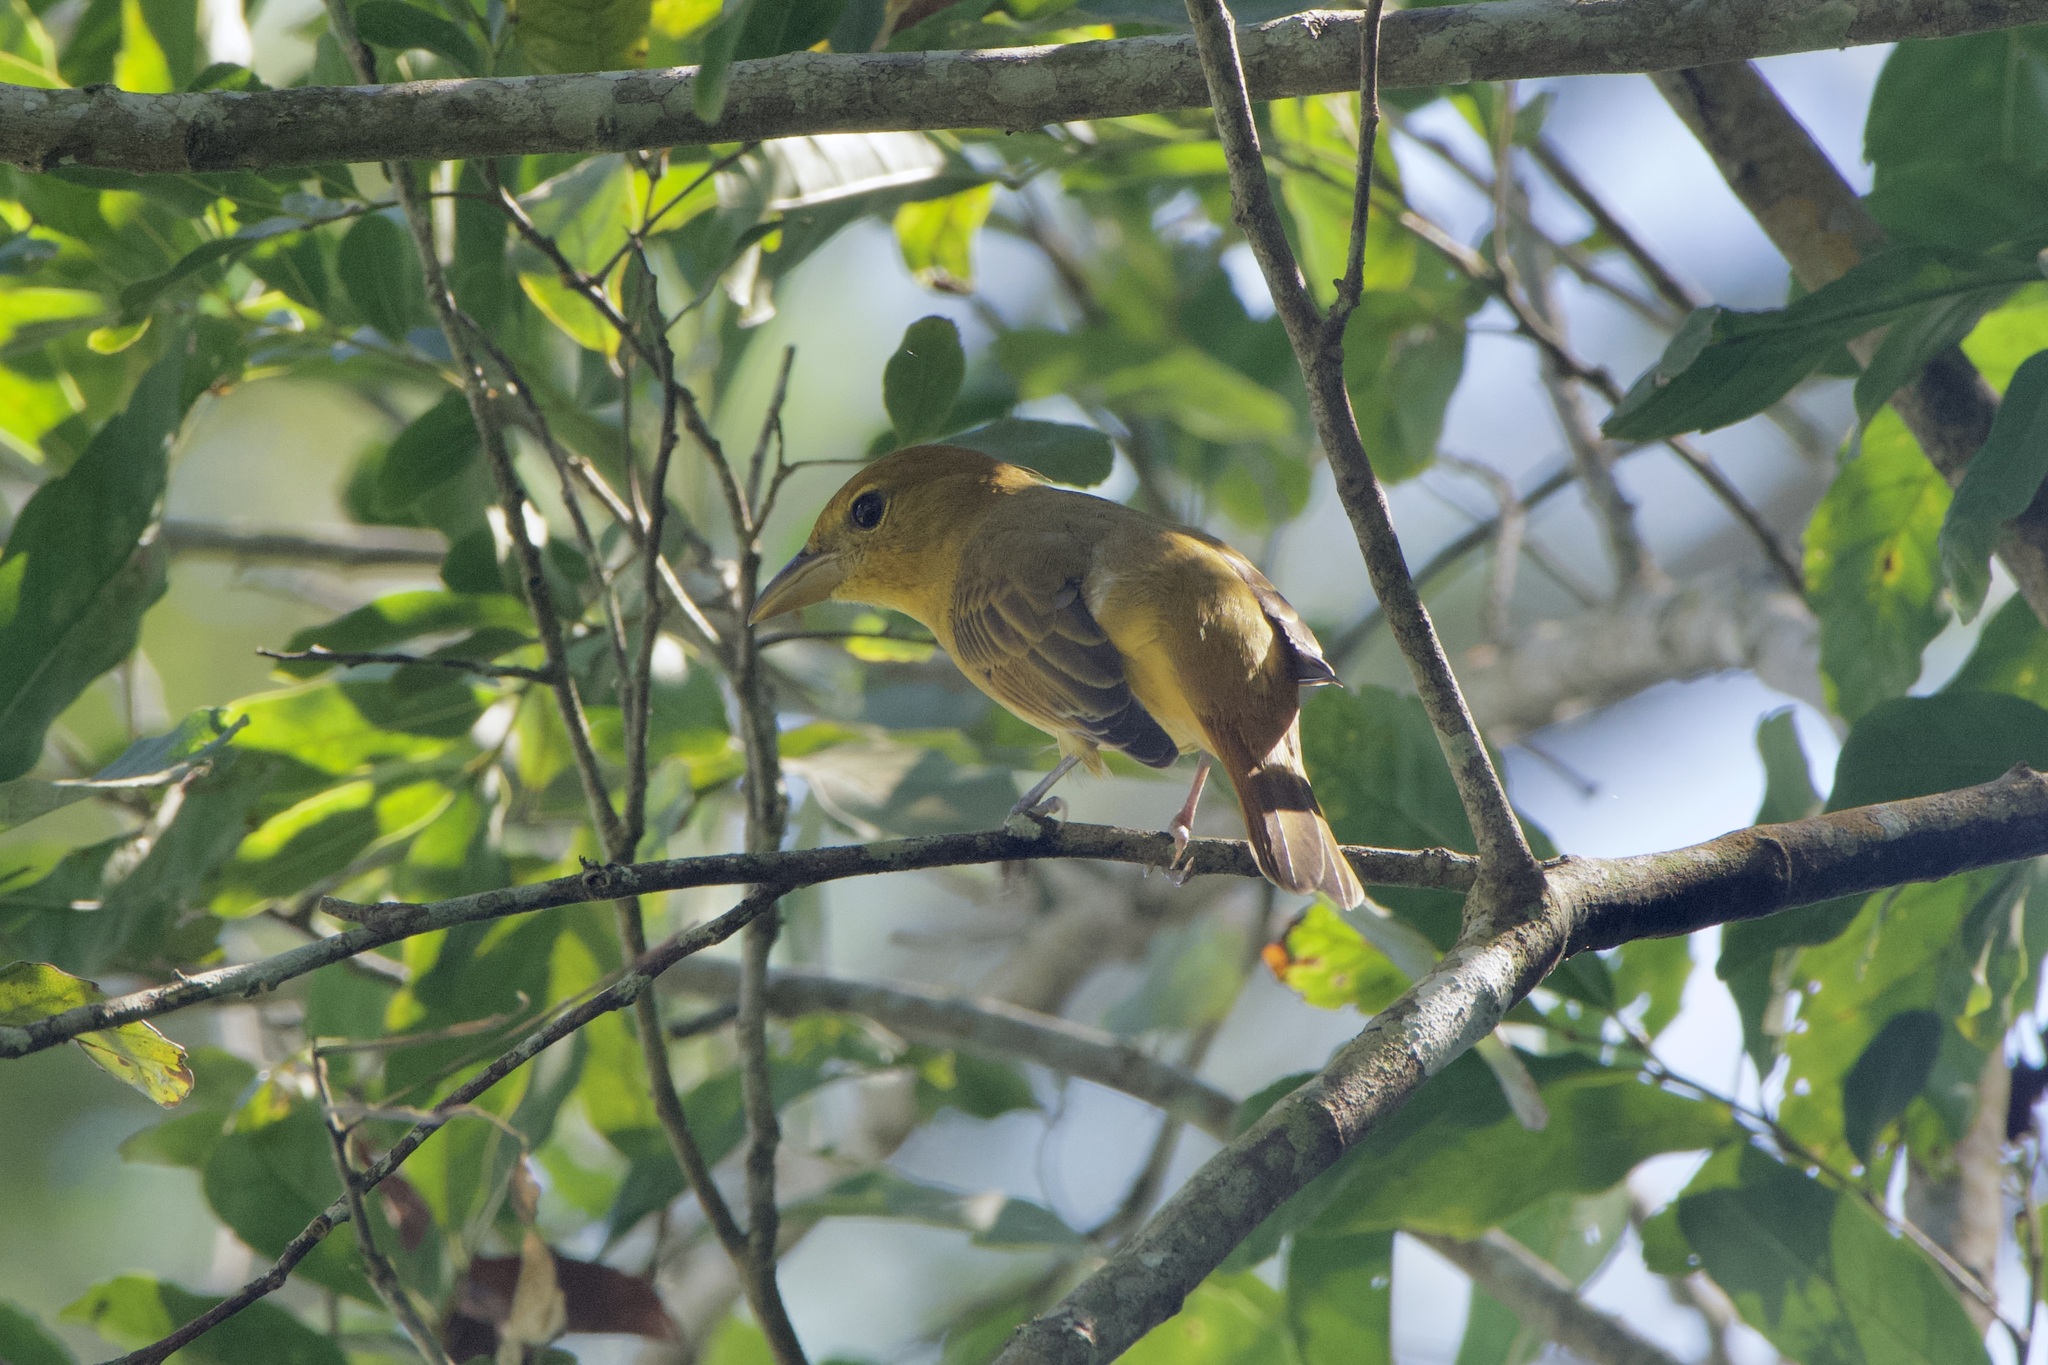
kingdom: Animalia
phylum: Chordata
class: Aves
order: Passeriformes
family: Cardinalidae
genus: Piranga
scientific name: Piranga rubra
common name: Summer tanager
